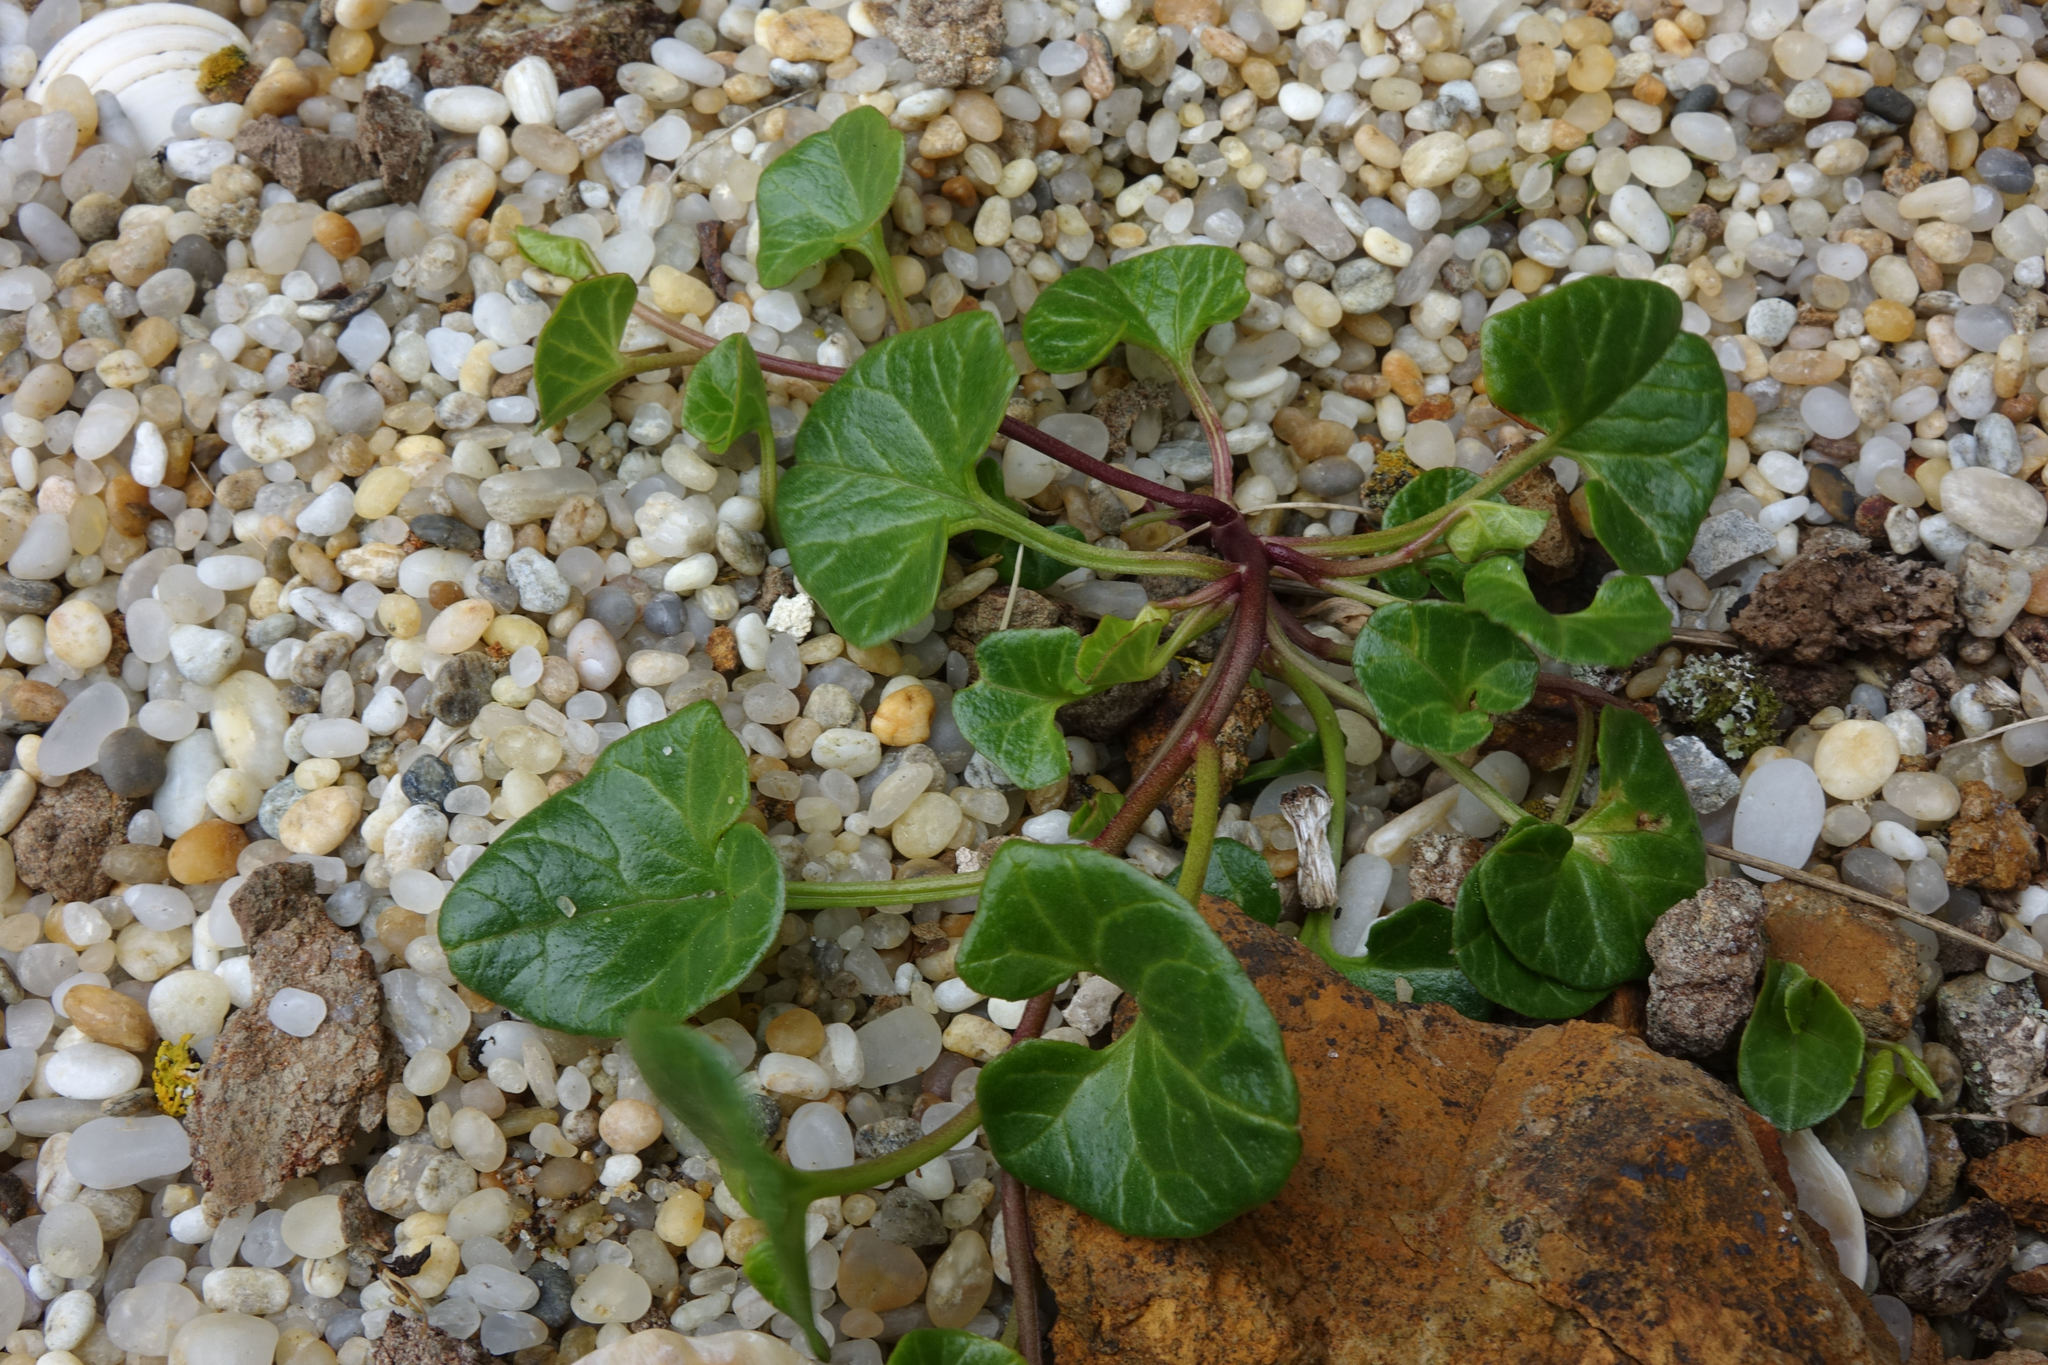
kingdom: Plantae
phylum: Tracheophyta
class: Magnoliopsida
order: Solanales
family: Convolvulaceae
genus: Calystegia
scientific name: Calystegia soldanella
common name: Sea bindweed
